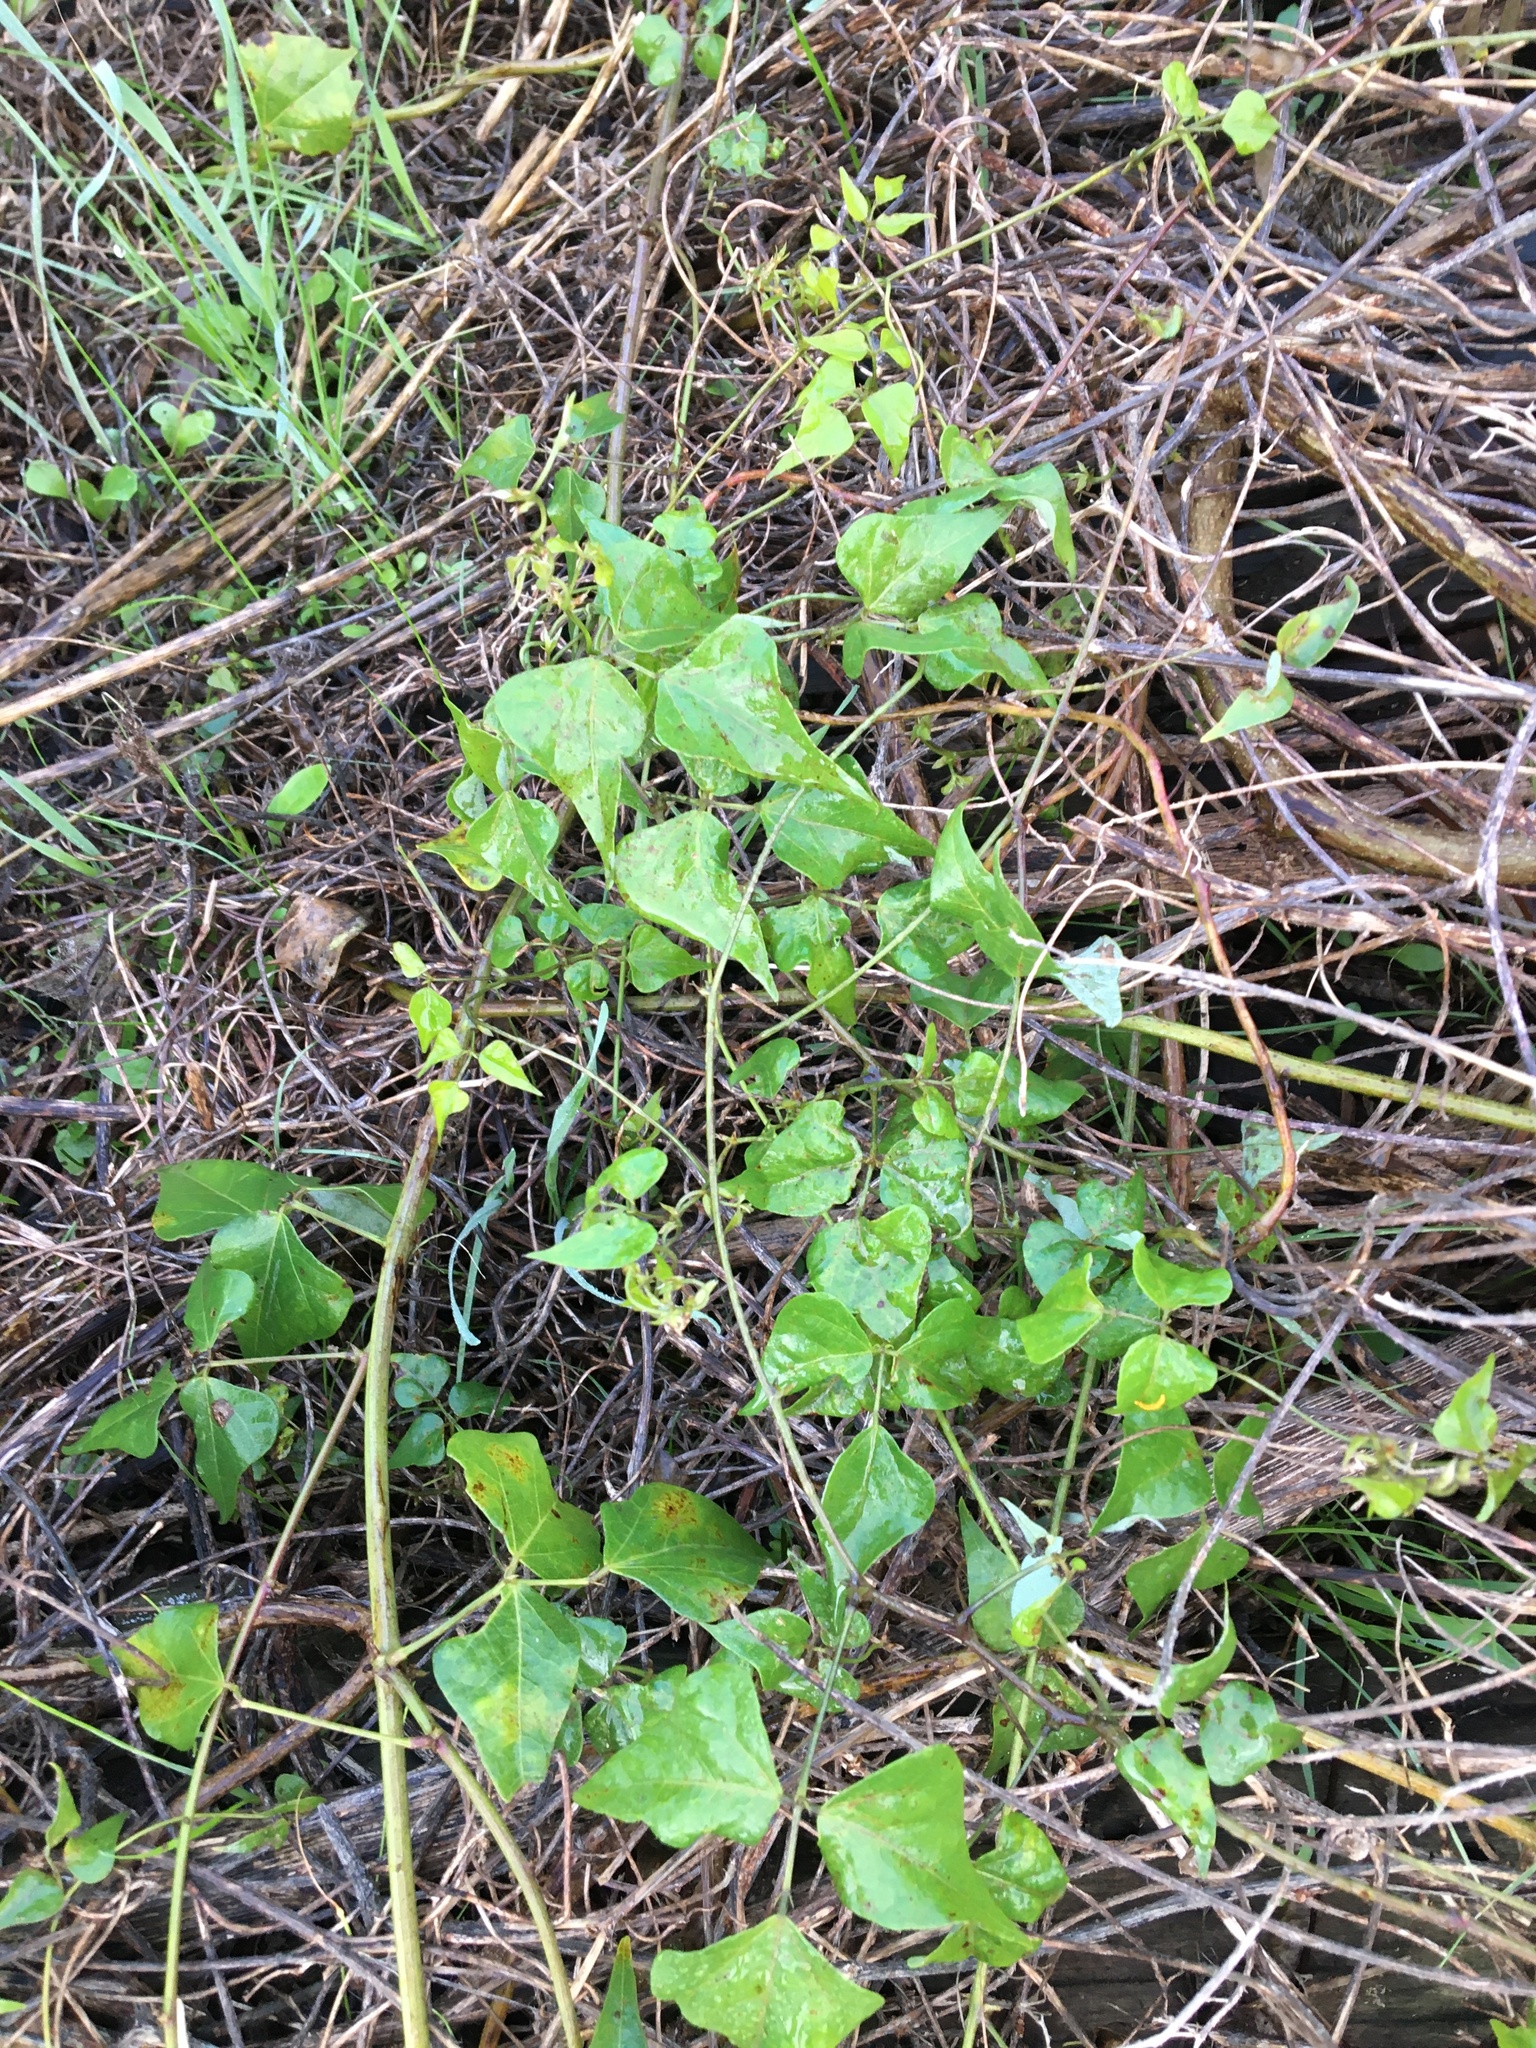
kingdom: Plantae
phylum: Tracheophyta
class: Magnoliopsida
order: Fabales
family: Fabaceae
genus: Dipogon
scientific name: Dipogon lignosus
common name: Okie bean
